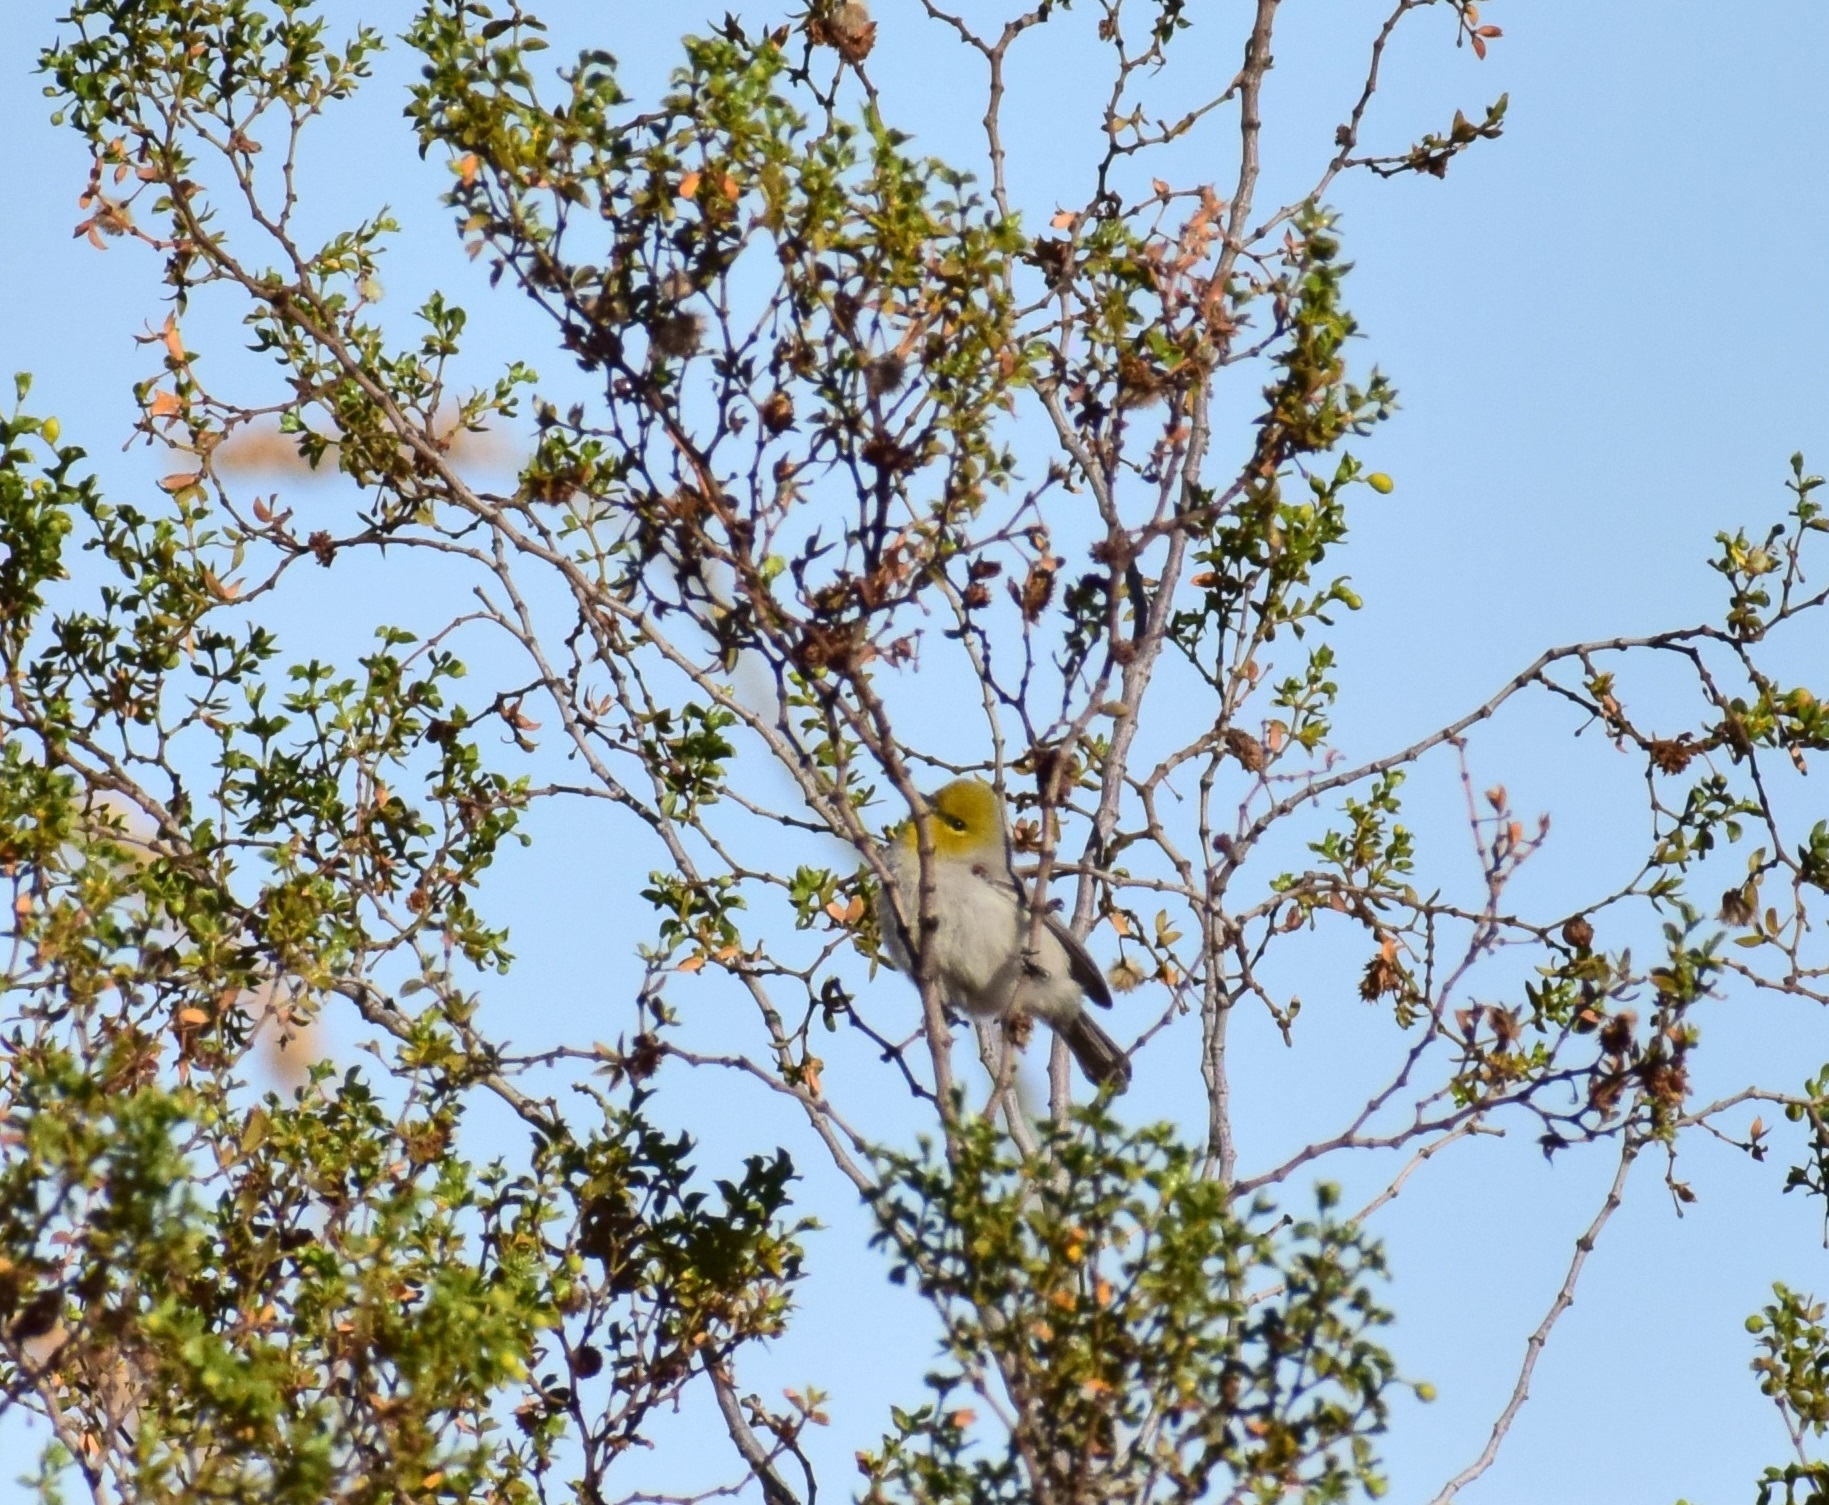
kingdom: Animalia
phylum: Chordata
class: Aves
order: Passeriformes
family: Remizidae
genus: Auriparus
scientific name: Auriparus flaviceps
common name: Verdin
